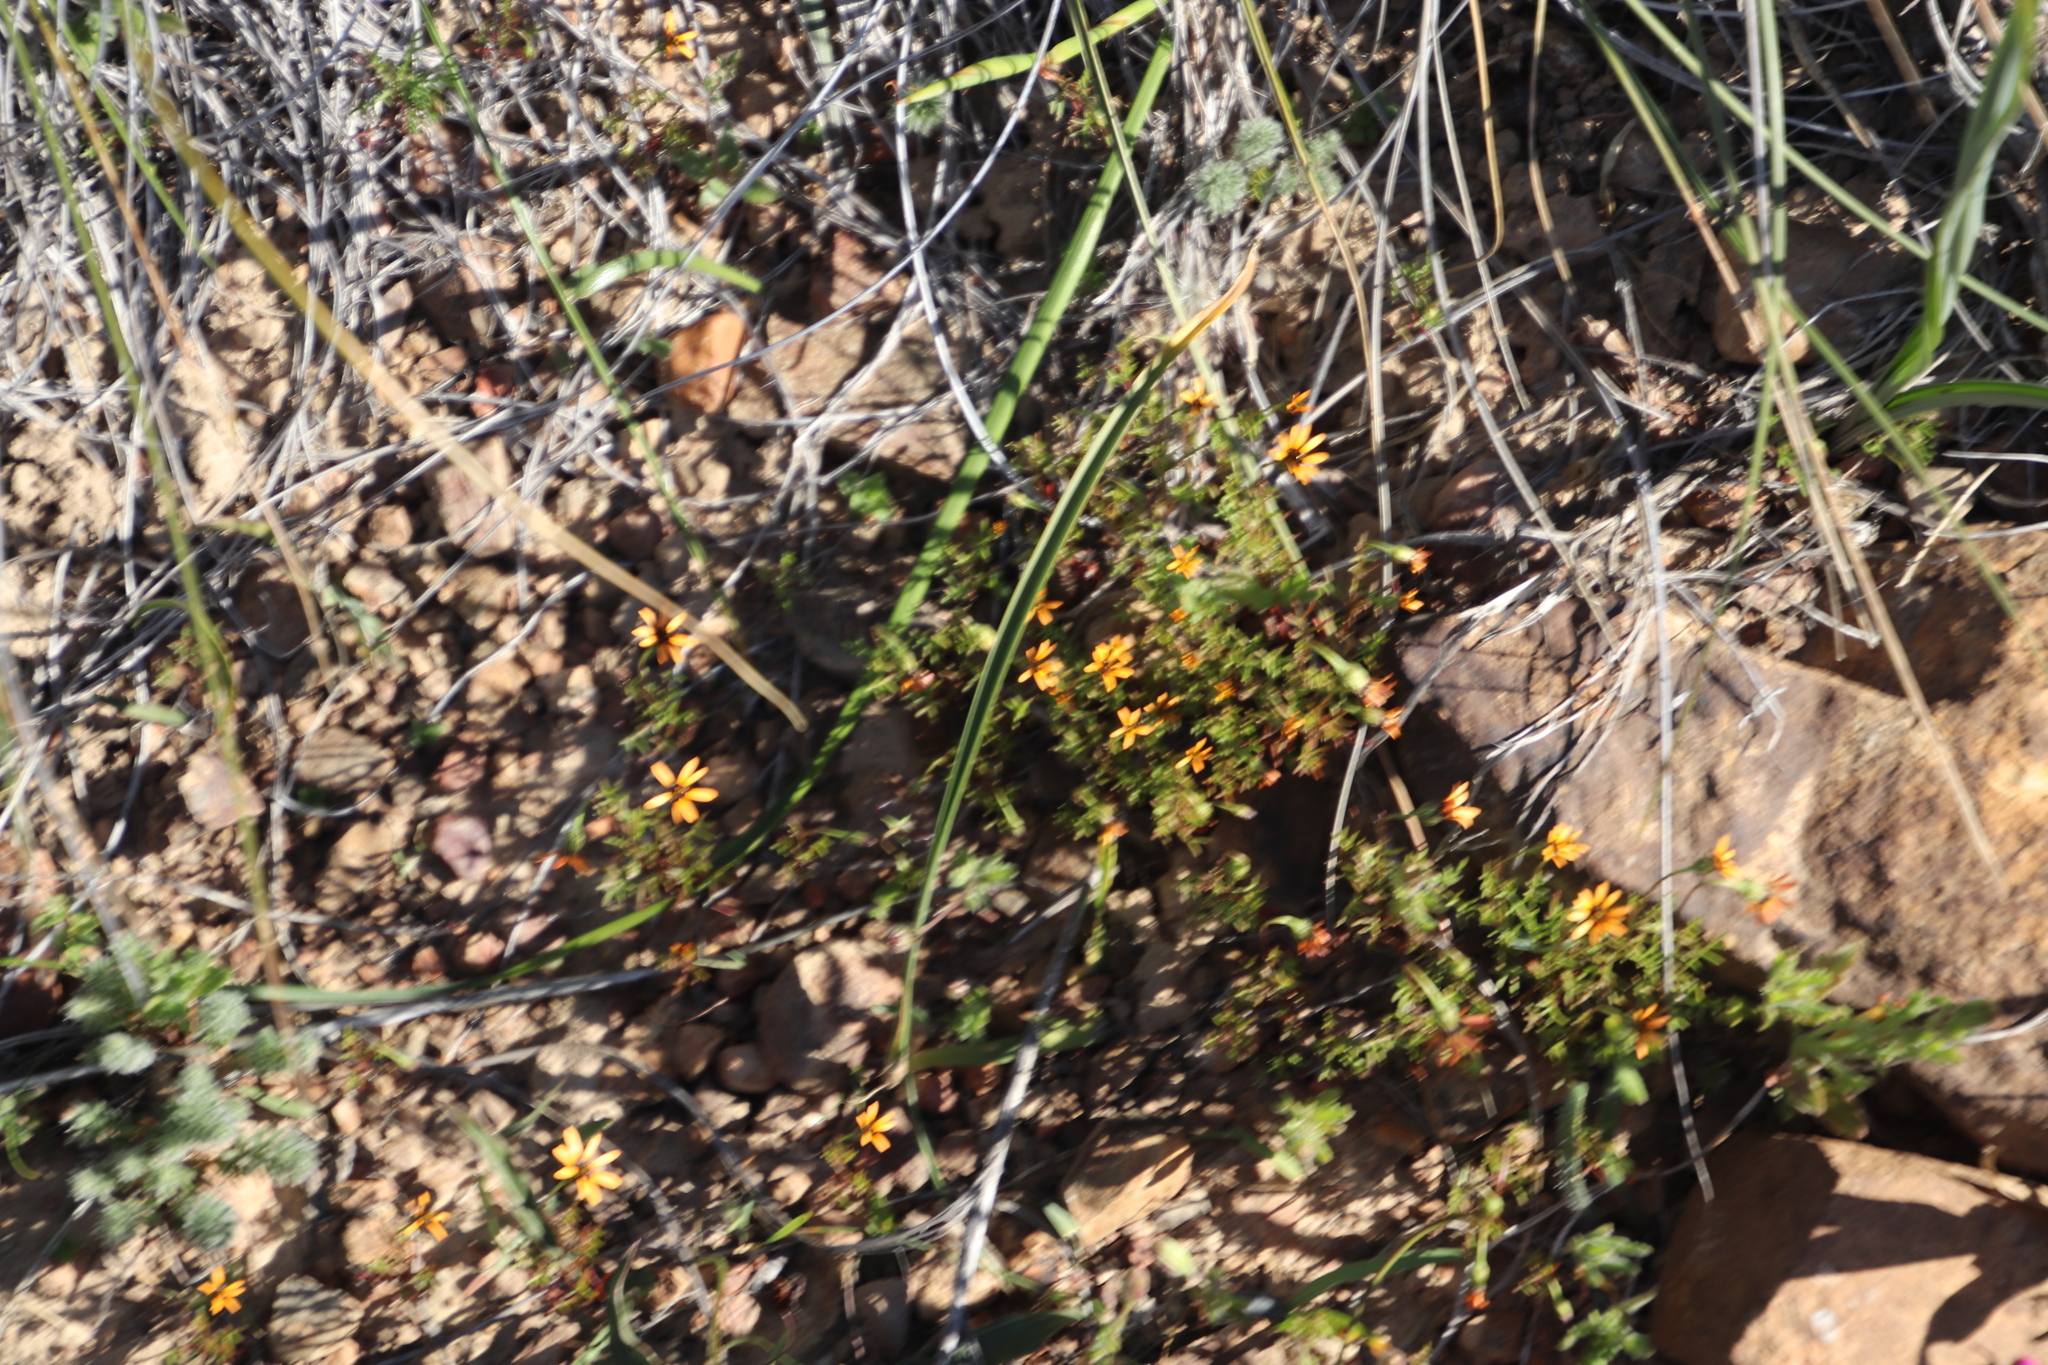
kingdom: Plantae
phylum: Tracheophyta
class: Magnoliopsida
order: Asterales
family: Asteraceae
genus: Ursinia
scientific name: Ursinia anthemoides
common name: Ursinia
